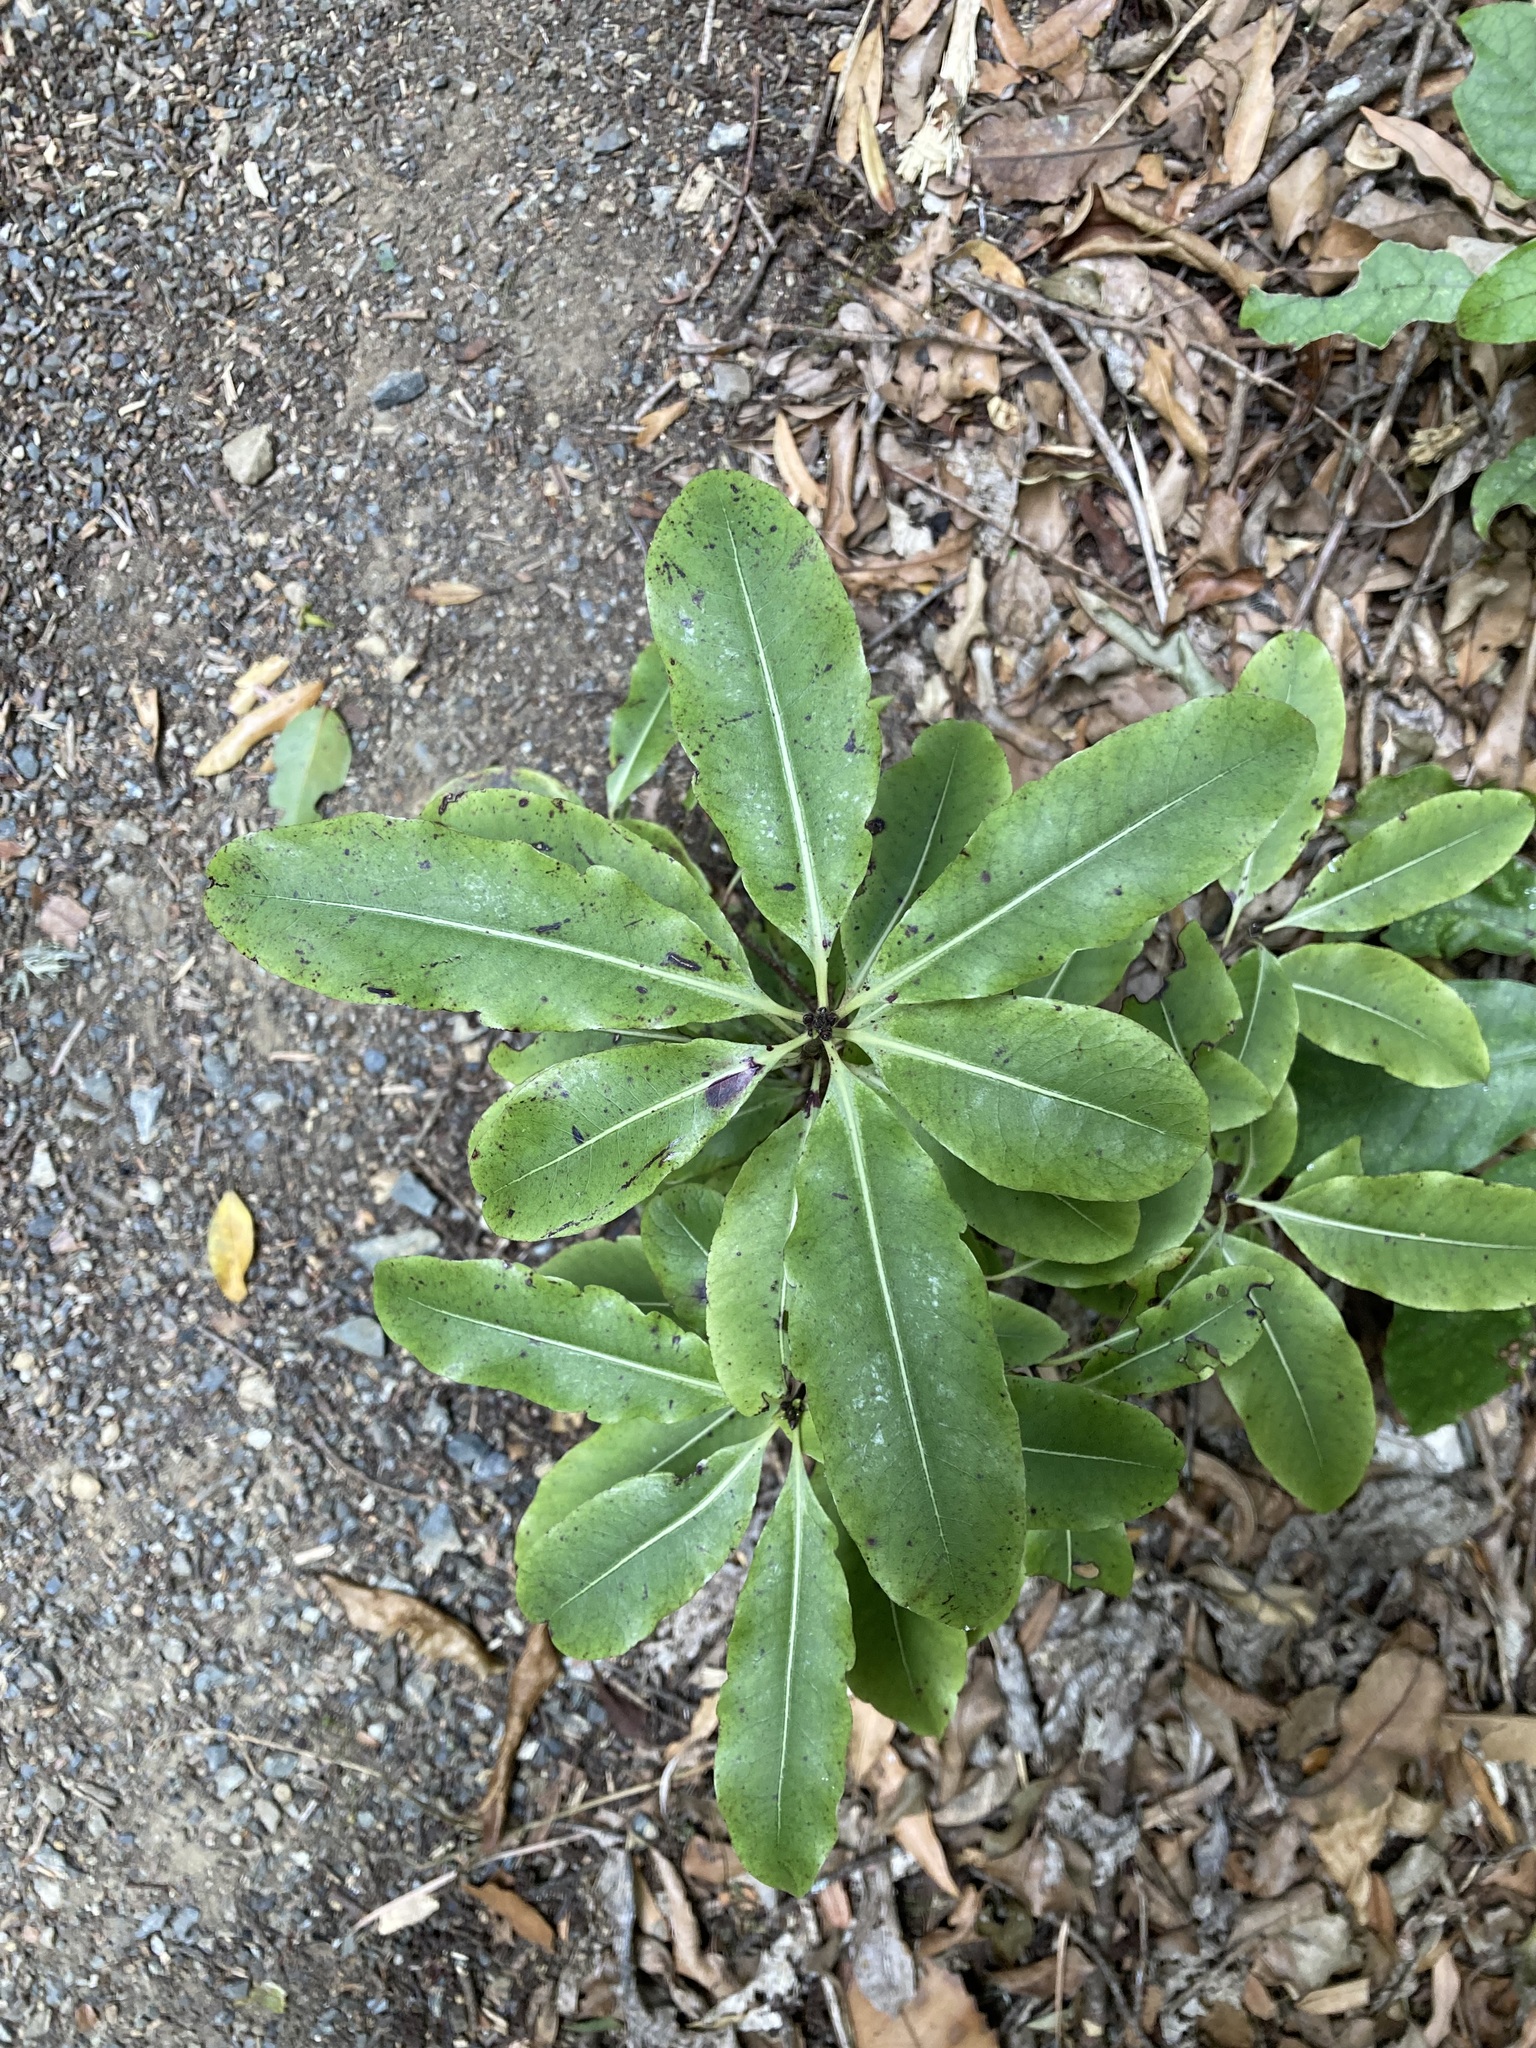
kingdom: Plantae
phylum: Tracheophyta
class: Magnoliopsida
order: Apiales
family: Pittosporaceae
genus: Pittosporum
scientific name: Pittosporum eugenioides
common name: Lemonwood
